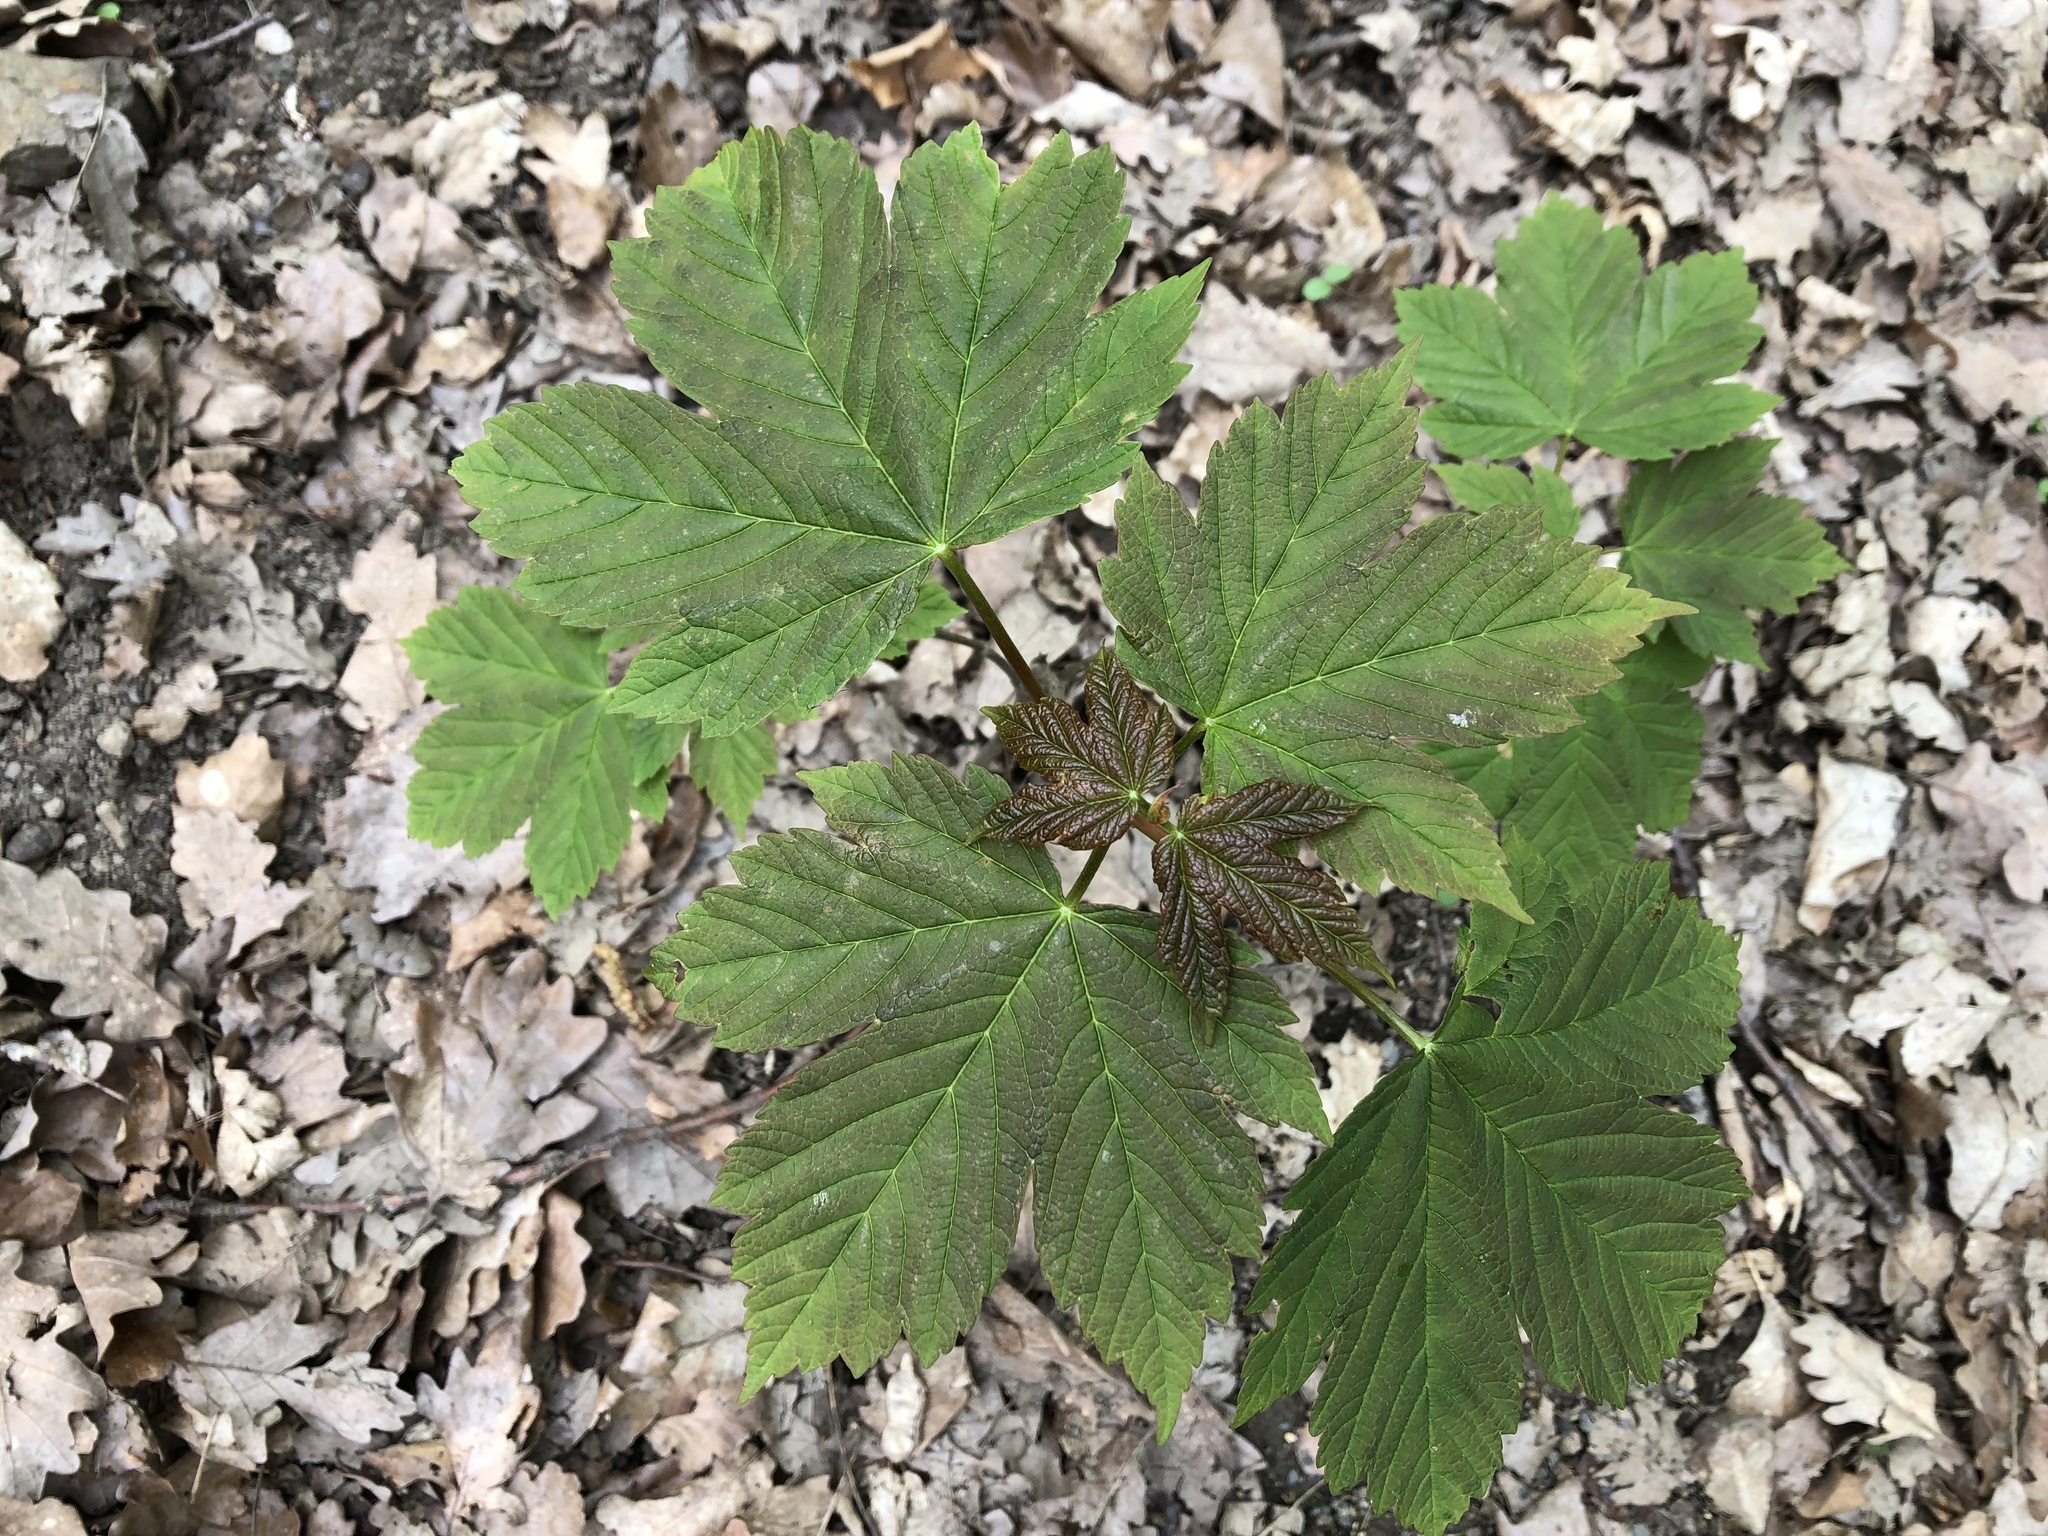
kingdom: Plantae
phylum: Tracheophyta
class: Magnoliopsida
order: Sapindales
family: Sapindaceae
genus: Acer
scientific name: Acer pseudoplatanus
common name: Sycamore
